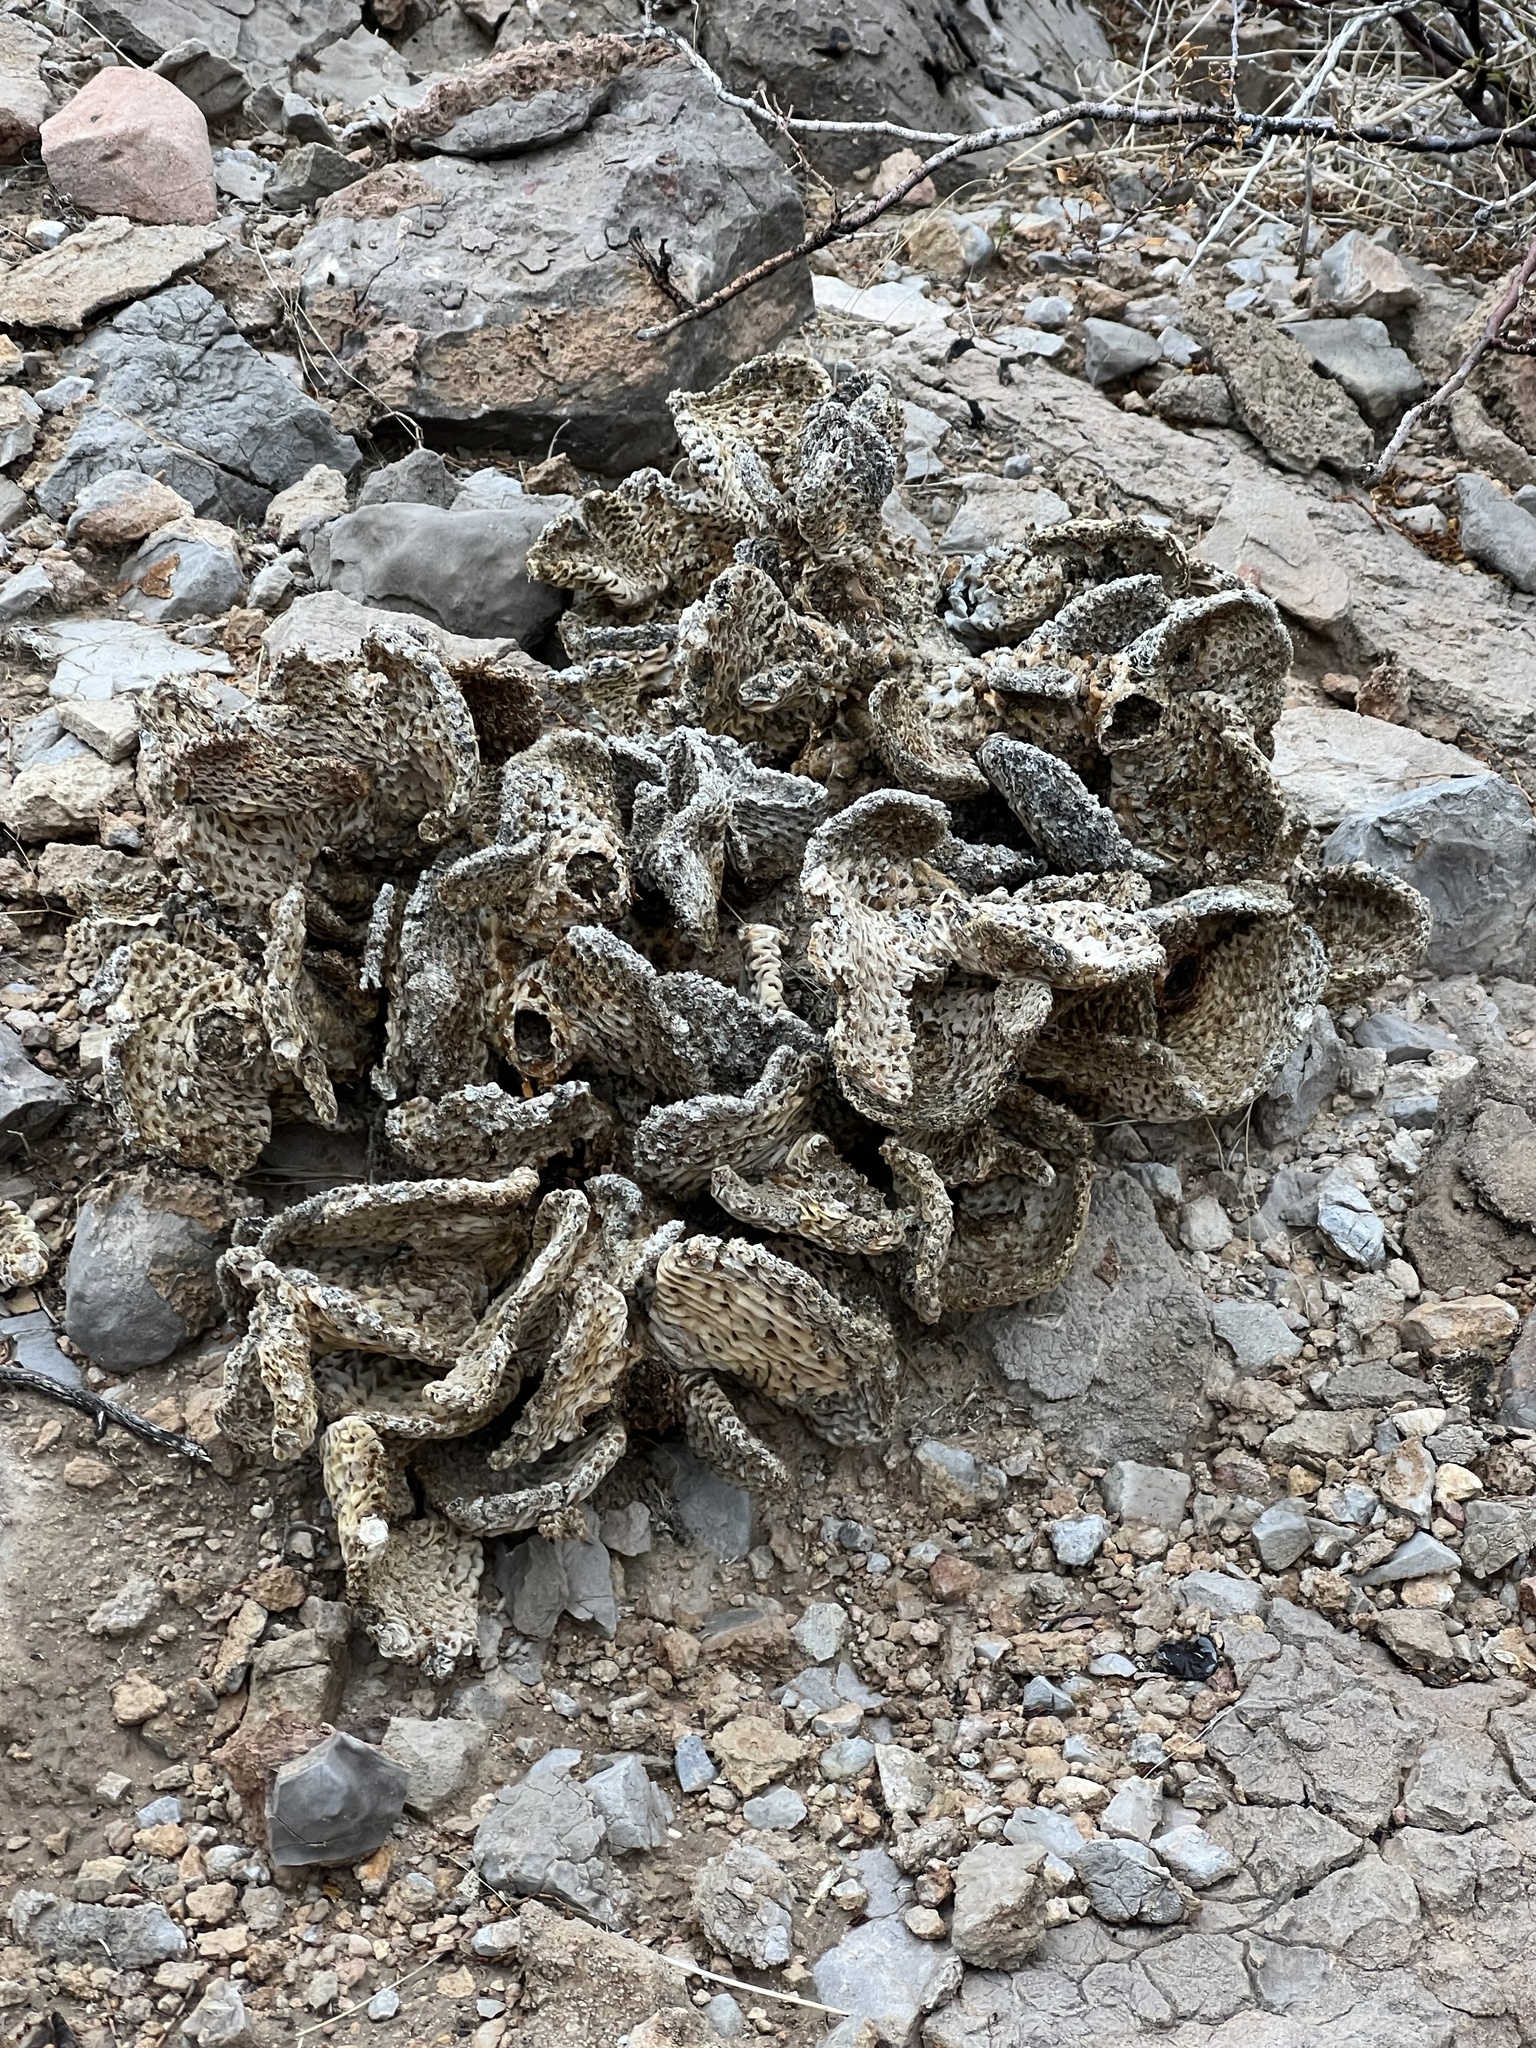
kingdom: Plantae
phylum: Tracheophyta
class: Magnoliopsida
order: Caryophyllales
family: Cactaceae
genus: Opuntia
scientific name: Opuntia basilaris
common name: Beavertail prickly-pear
